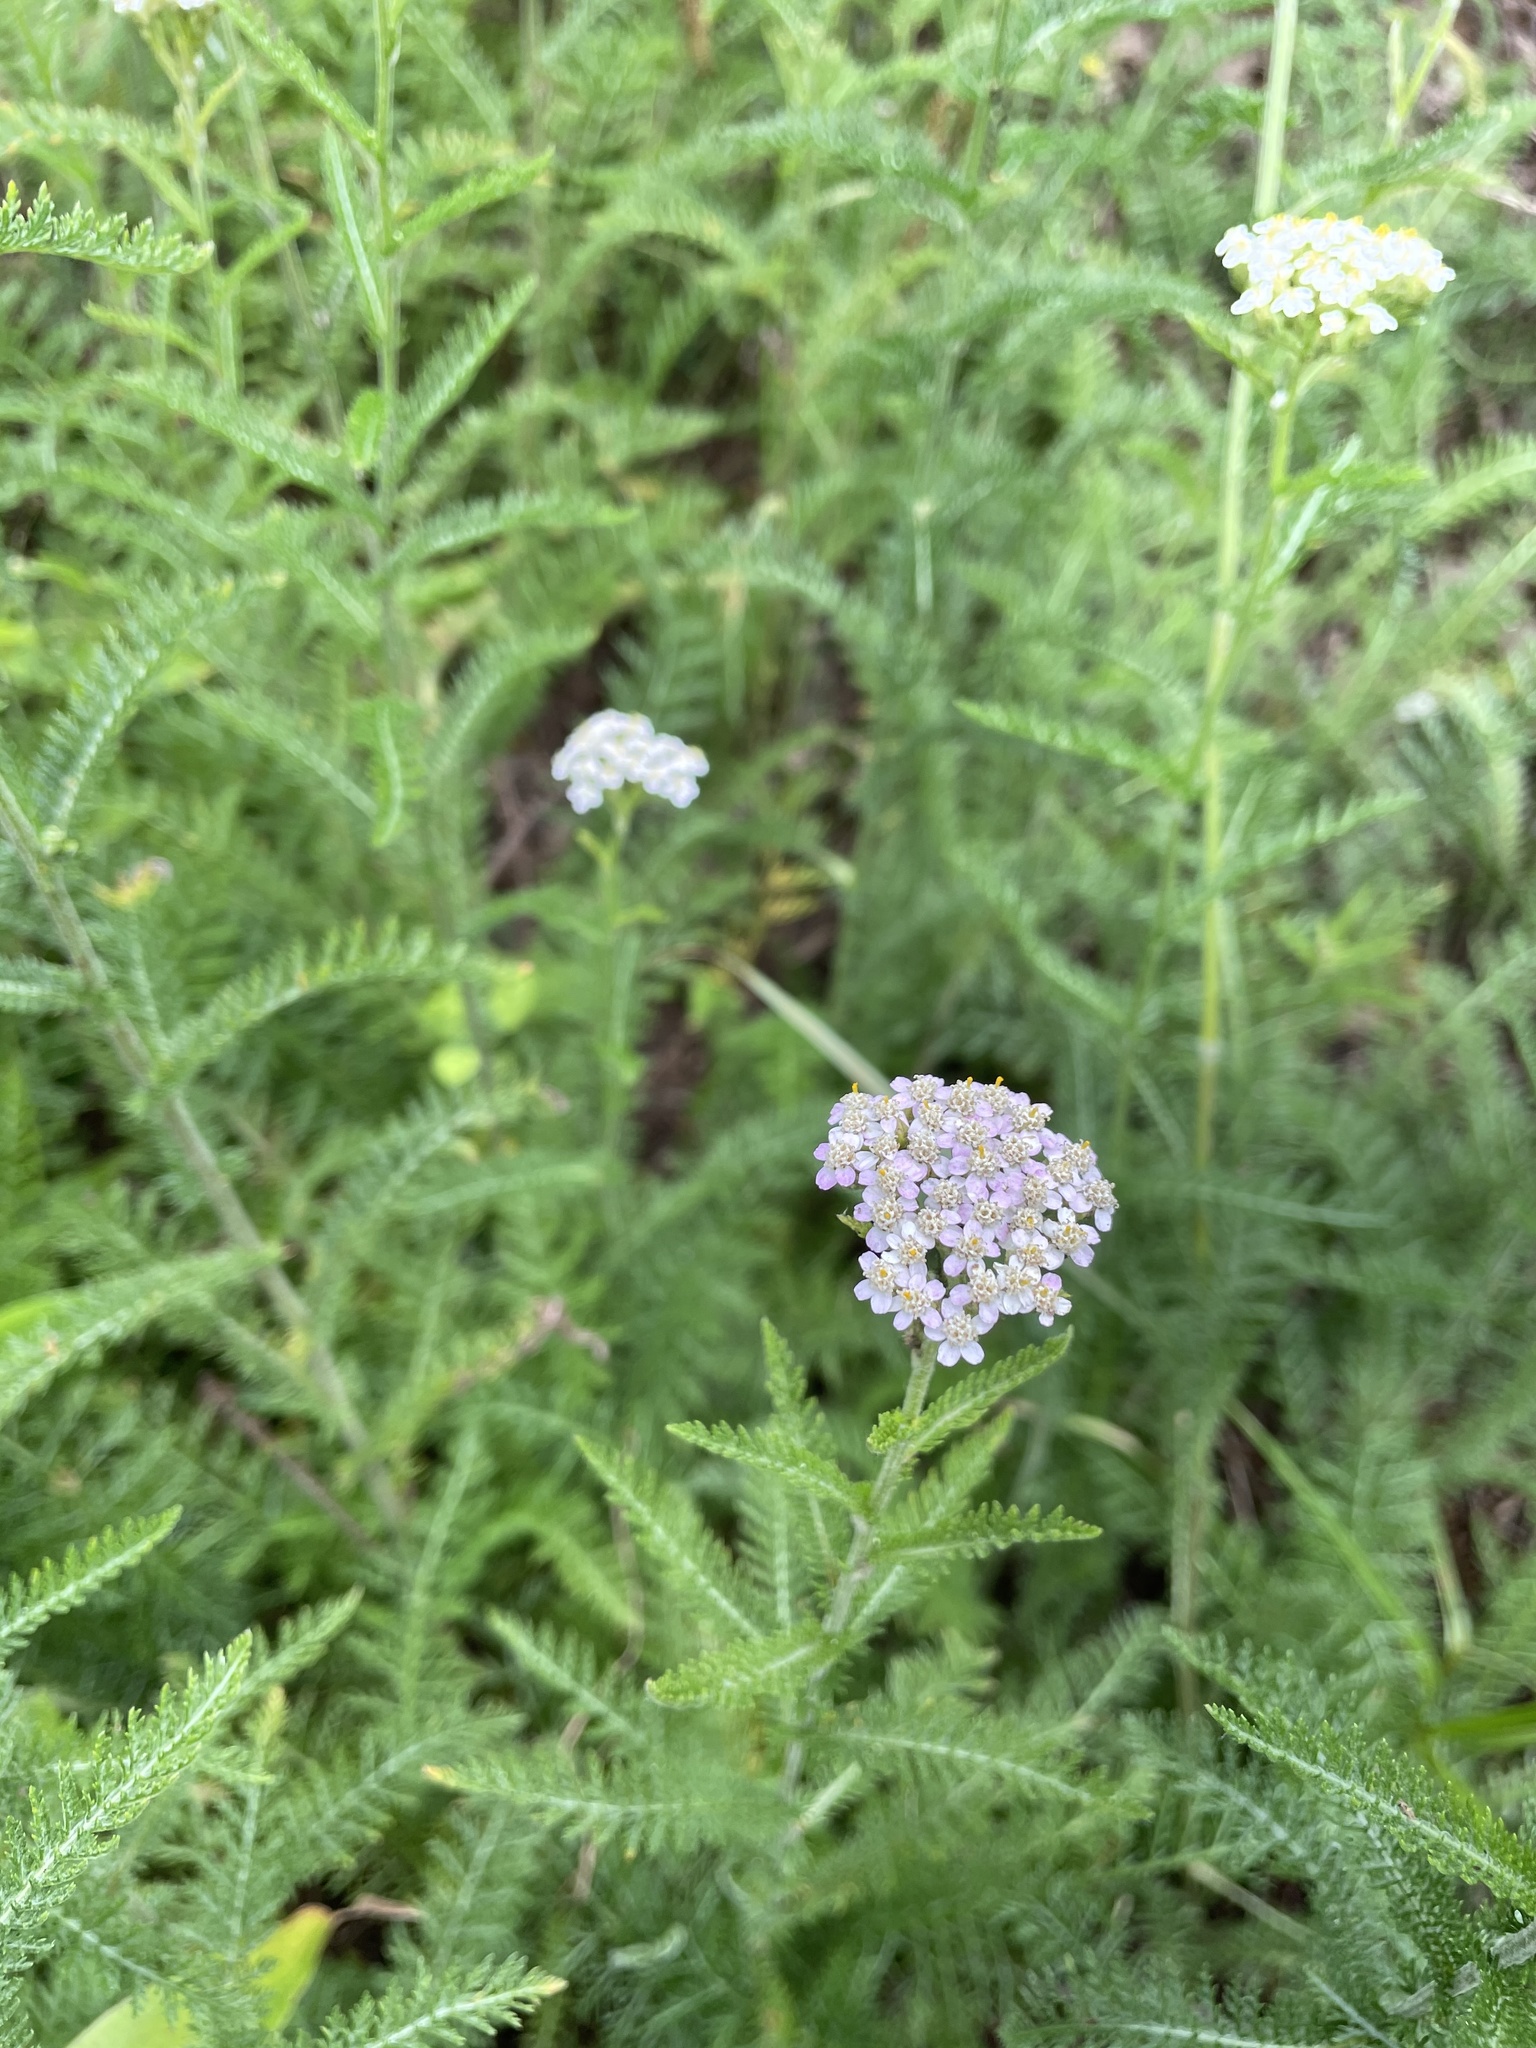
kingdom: Plantae
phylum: Tracheophyta
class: Magnoliopsida
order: Asterales
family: Asteraceae
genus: Achillea
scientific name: Achillea millefolium
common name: Yarrow
